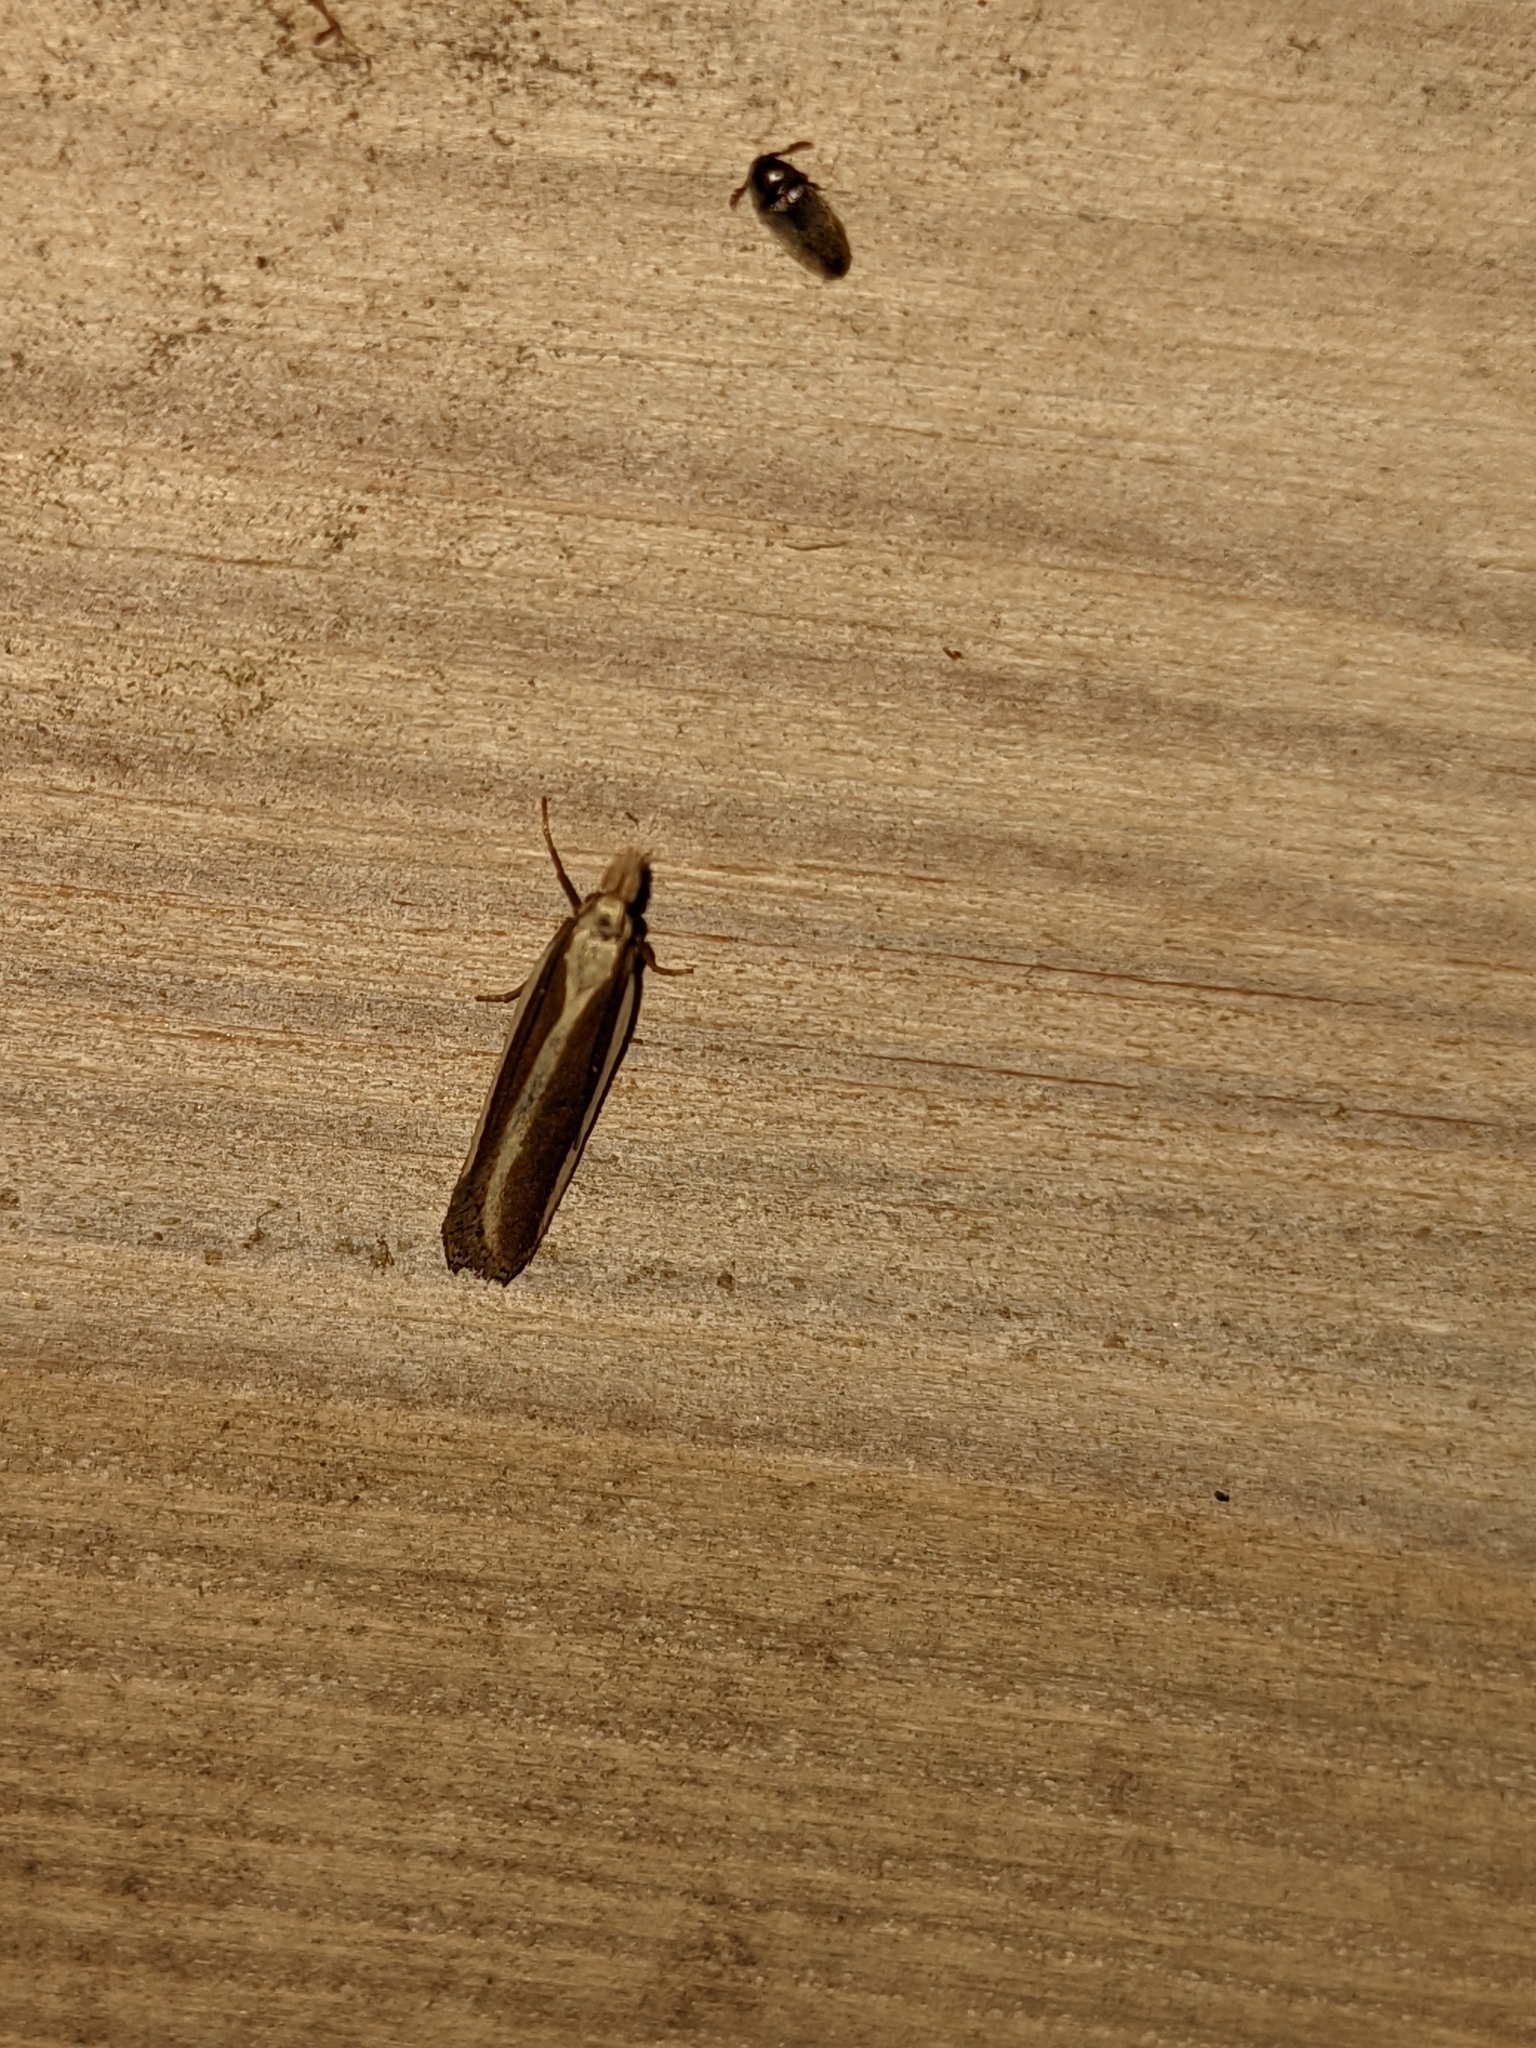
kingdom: Animalia
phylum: Arthropoda
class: Insecta
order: Lepidoptera
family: Gelechiidae
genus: Dichomeris
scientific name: Dichomeris marginella
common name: Juniper webworm
